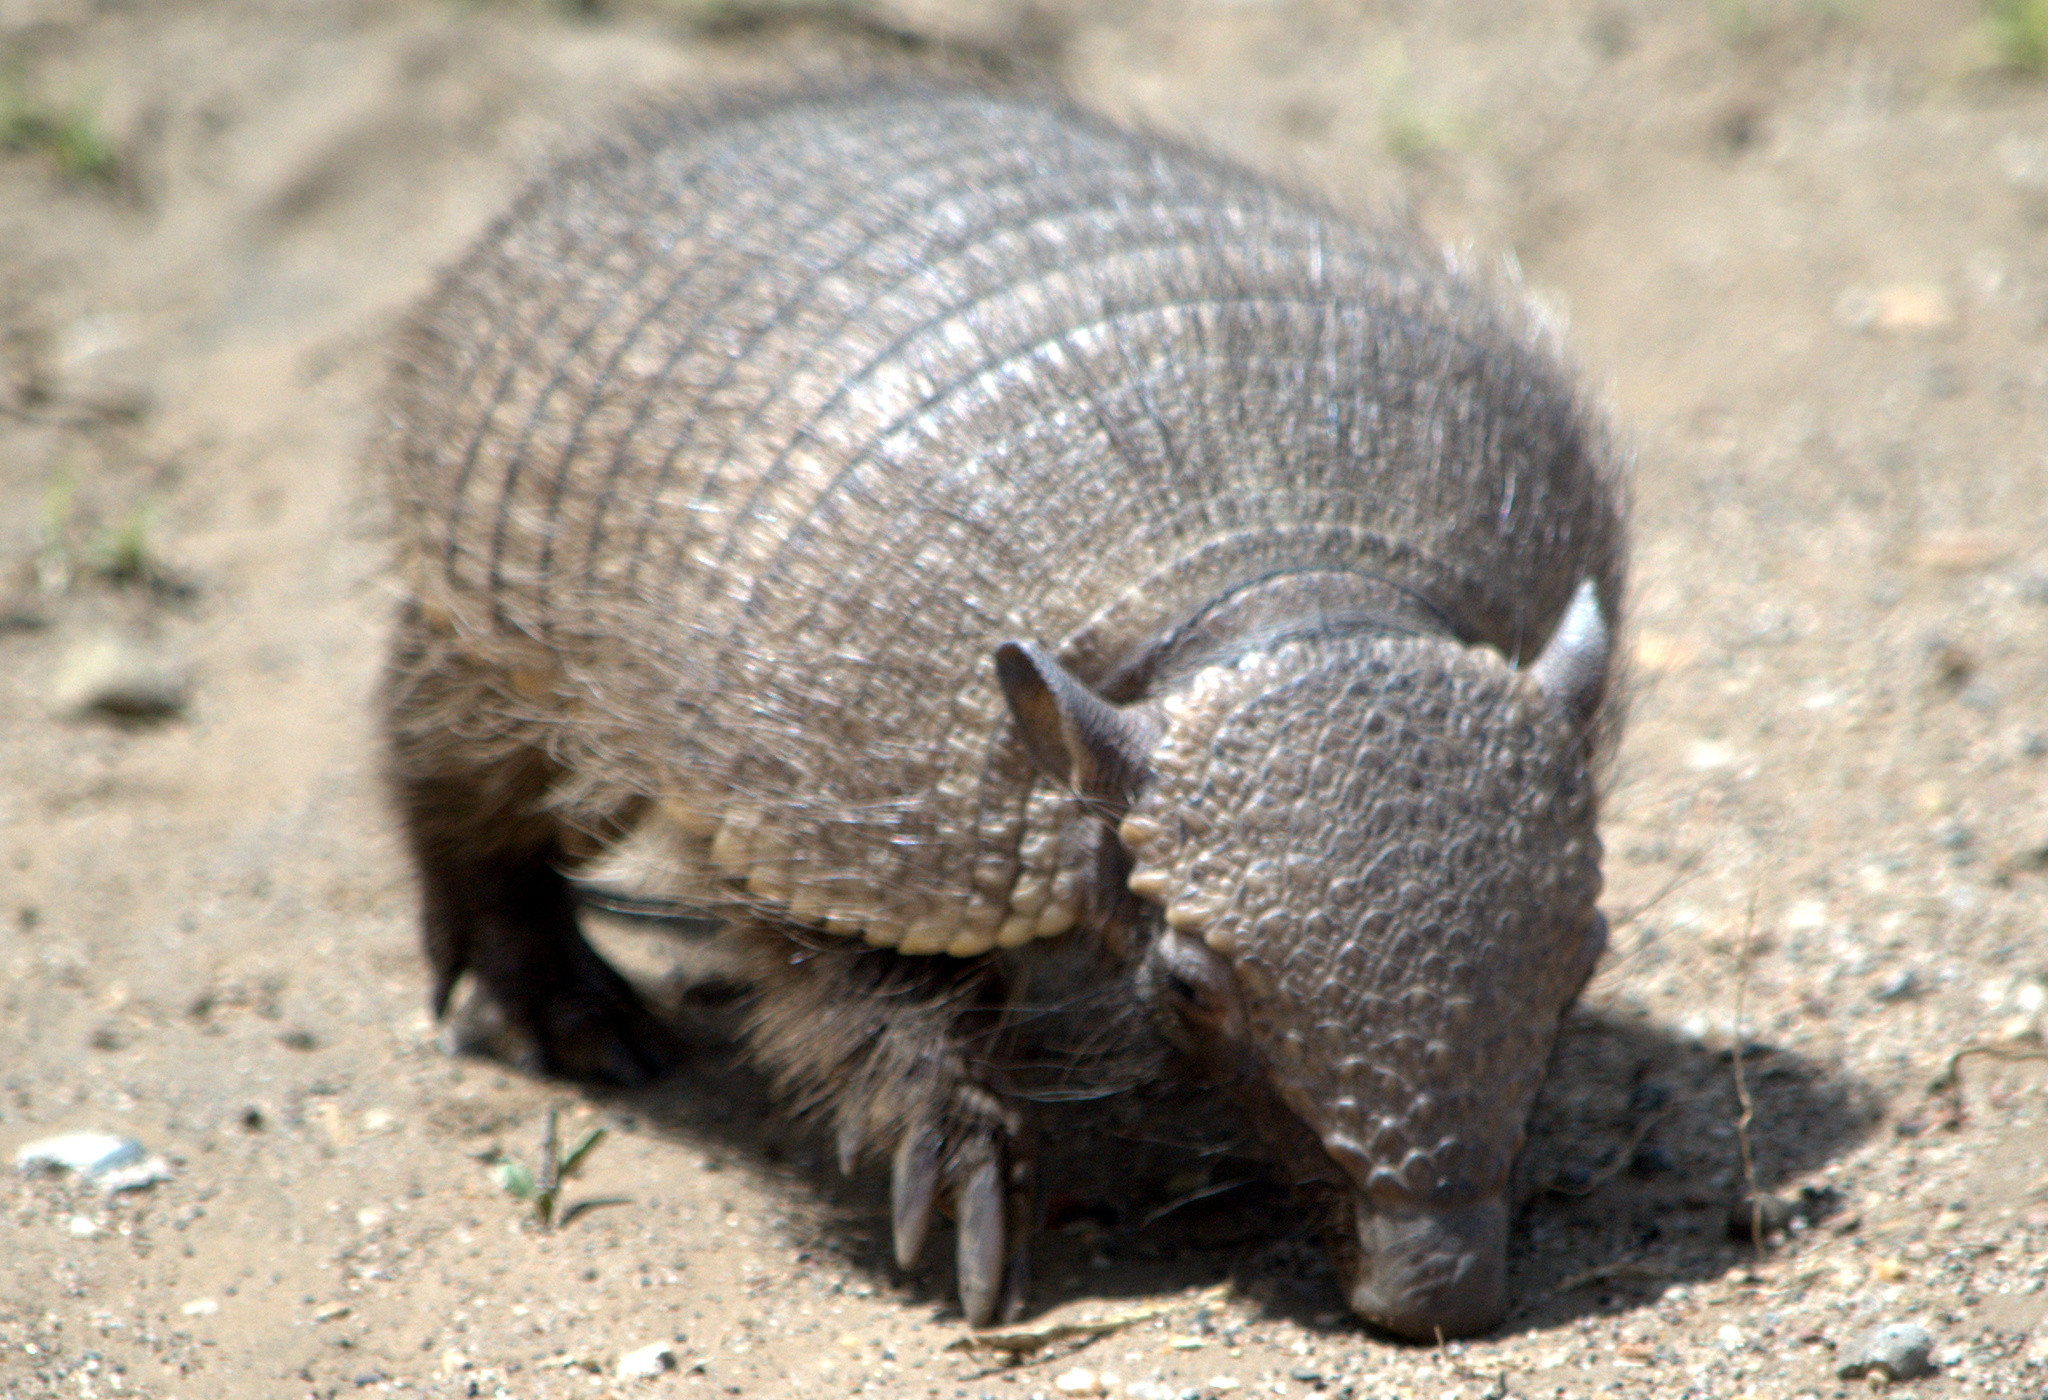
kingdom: Animalia
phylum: Chordata
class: Mammalia
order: Cingulata
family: Dasypodidae
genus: Chaetophractus
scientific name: Chaetophractus villosus
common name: Big hairy armadillo
